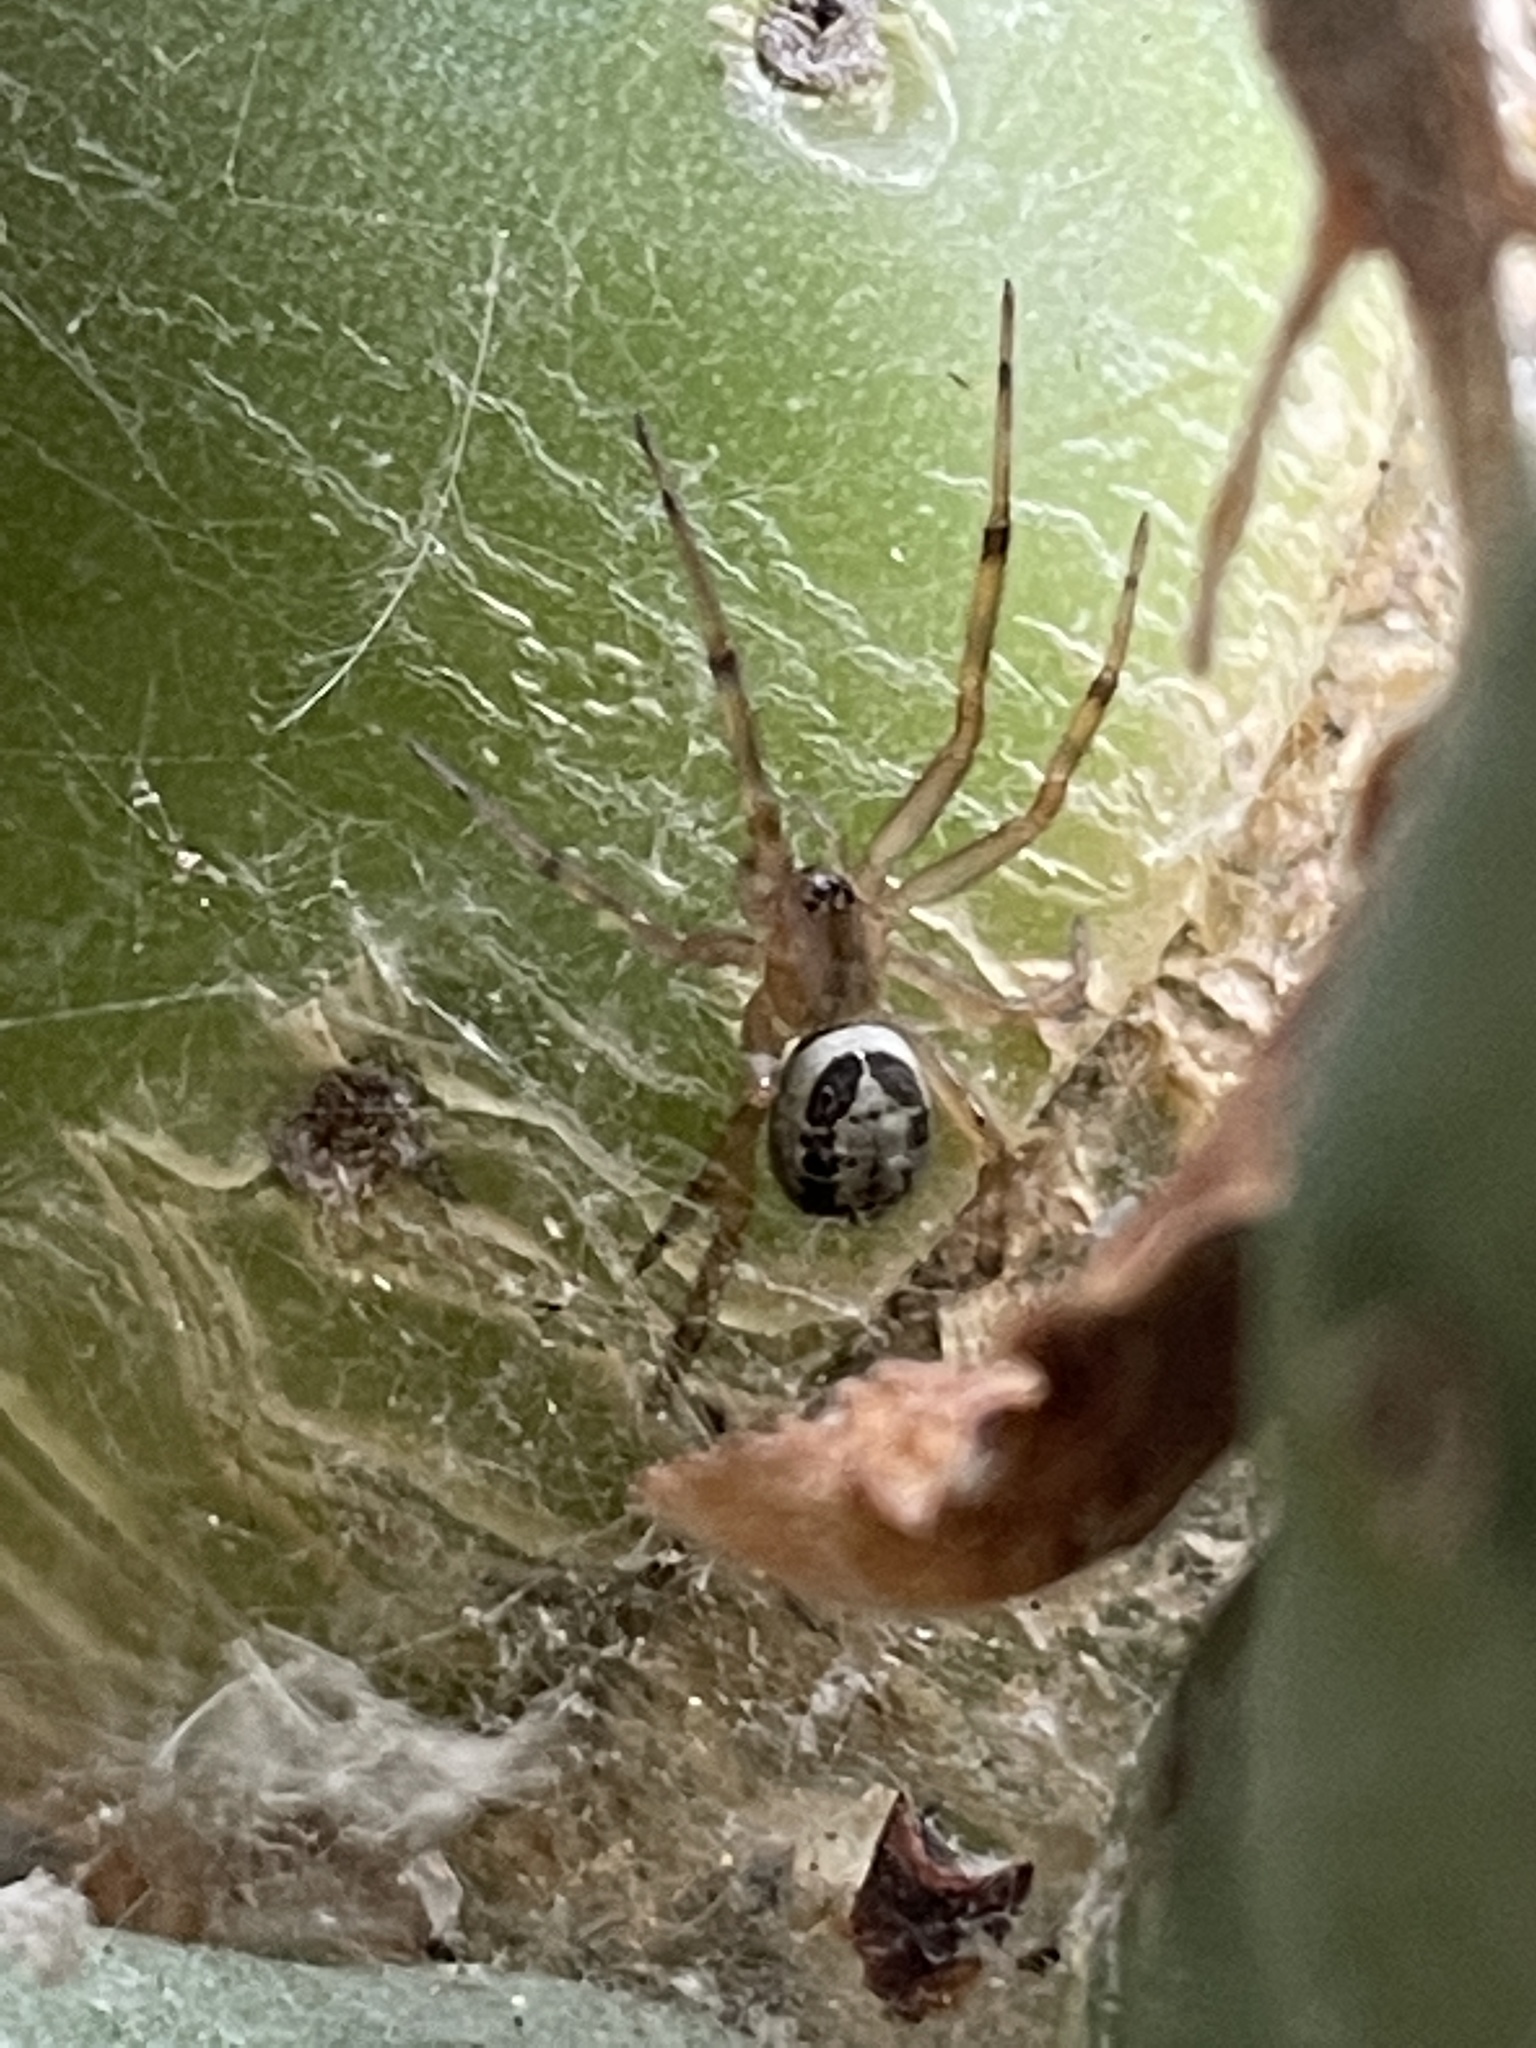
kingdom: Animalia
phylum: Arthropoda
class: Arachnida
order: Araneae
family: Theridiidae
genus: Steatoda
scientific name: Steatoda nobilis
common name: Cobweb weaver
